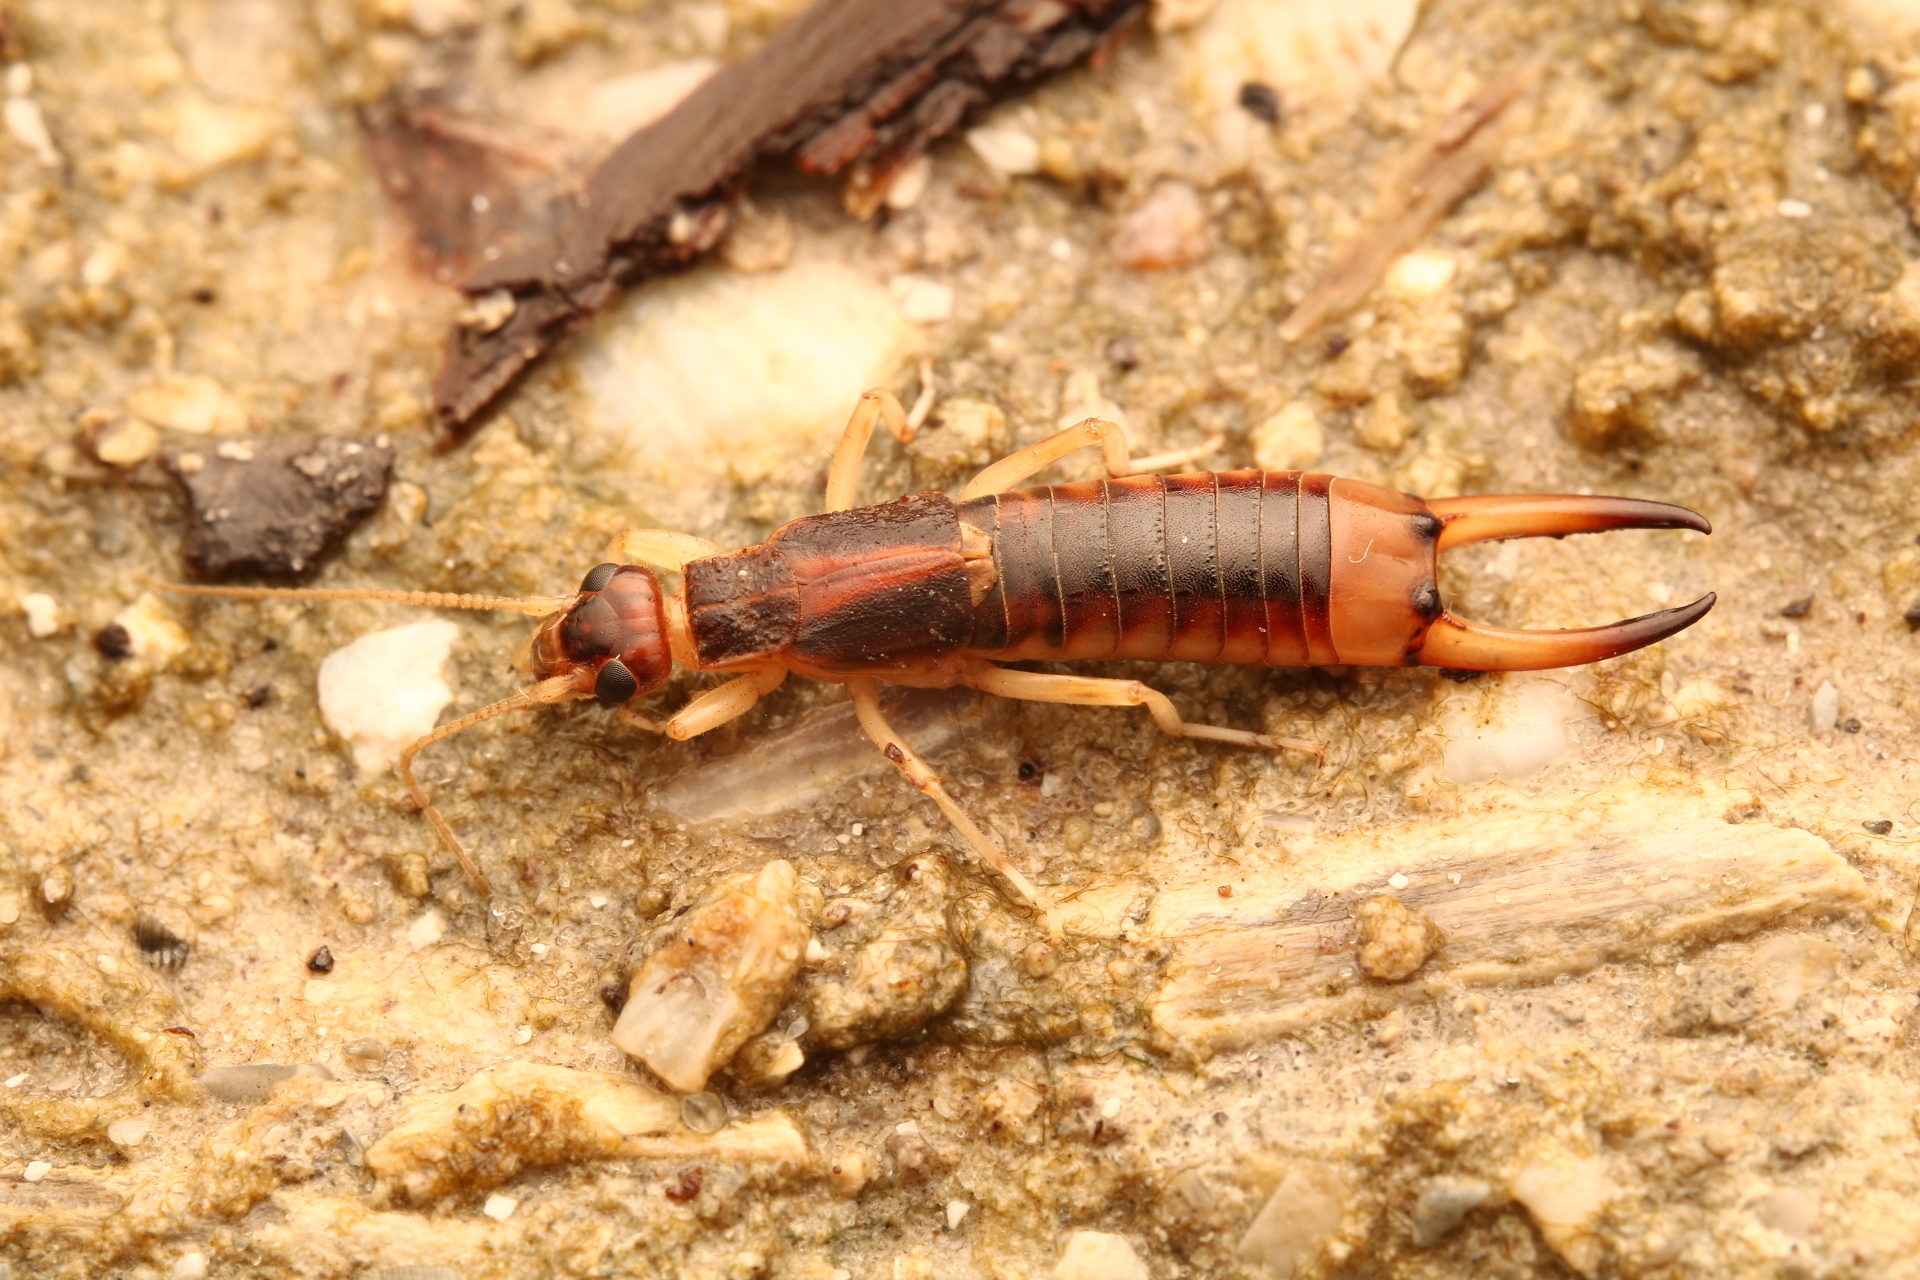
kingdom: Animalia
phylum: Arthropoda
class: Insecta
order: Dermaptera
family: Labiduridae
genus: Labidura
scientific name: Labidura riparia
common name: Striped earwig
